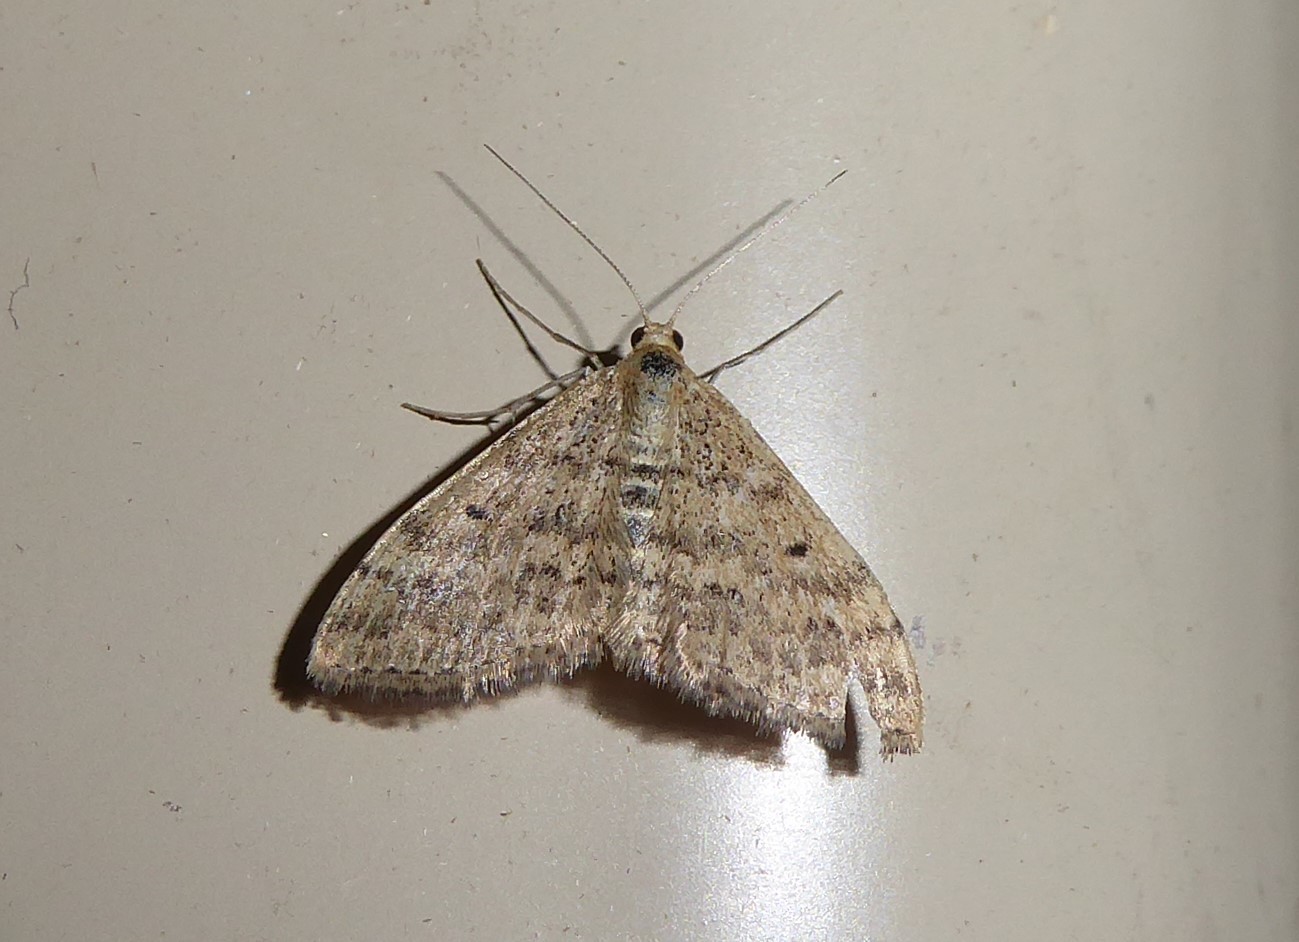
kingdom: Animalia
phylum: Arthropoda
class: Insecta
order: Lepidoptera
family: Geometridae
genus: Scopula
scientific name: Scopula rubraria
